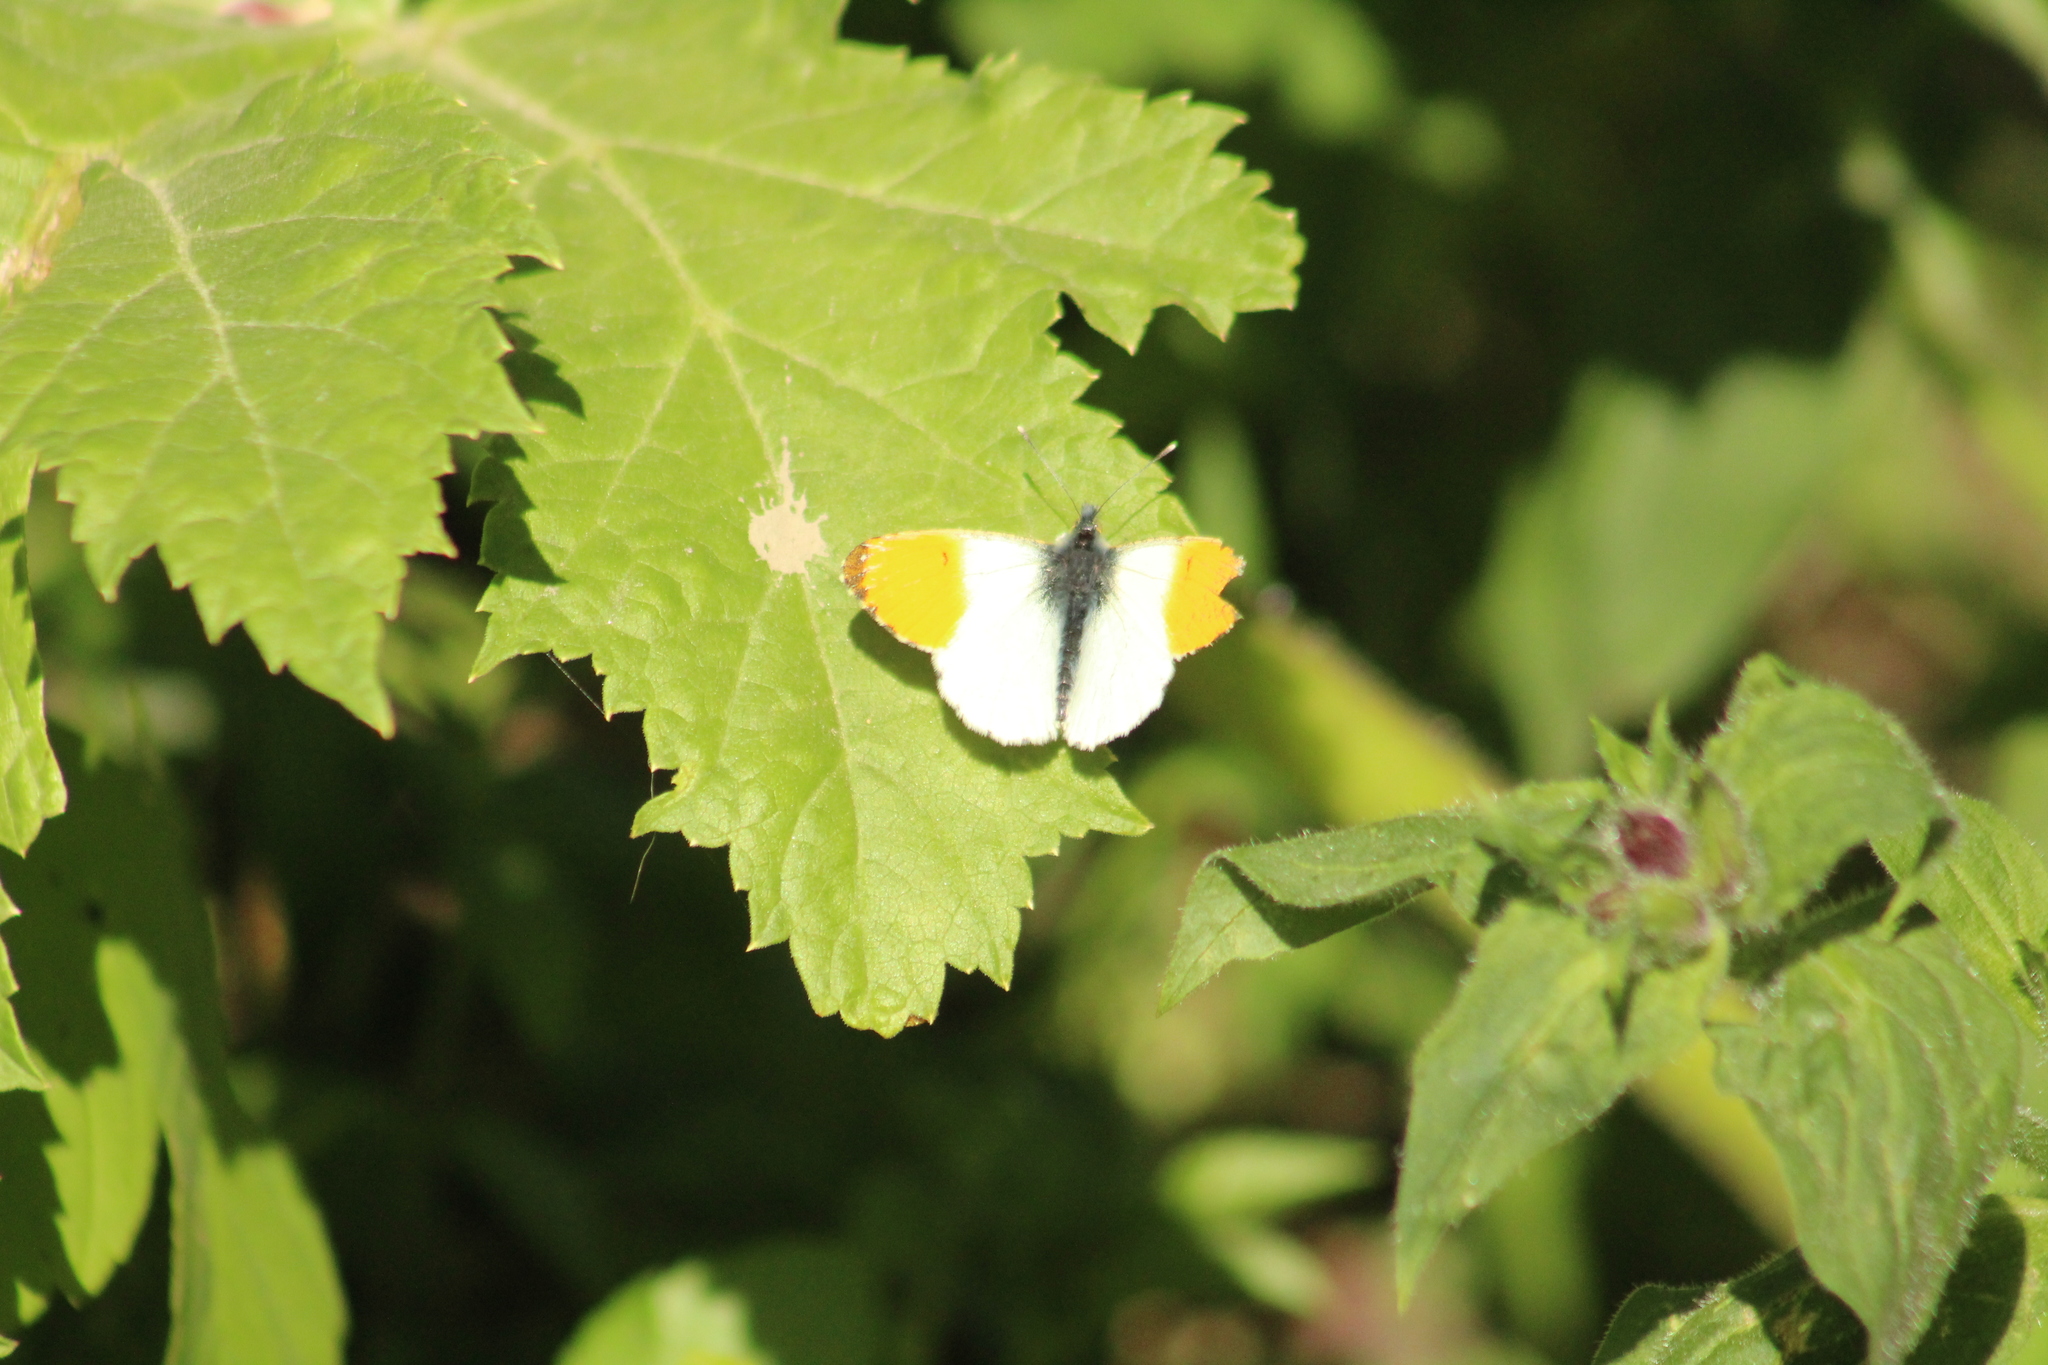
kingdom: Animalia
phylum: Arthropoda
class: Insecta
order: Lepidoptera
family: Pieridae
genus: Anthocharis
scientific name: Anthocharis cardamines
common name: Orange-tip
